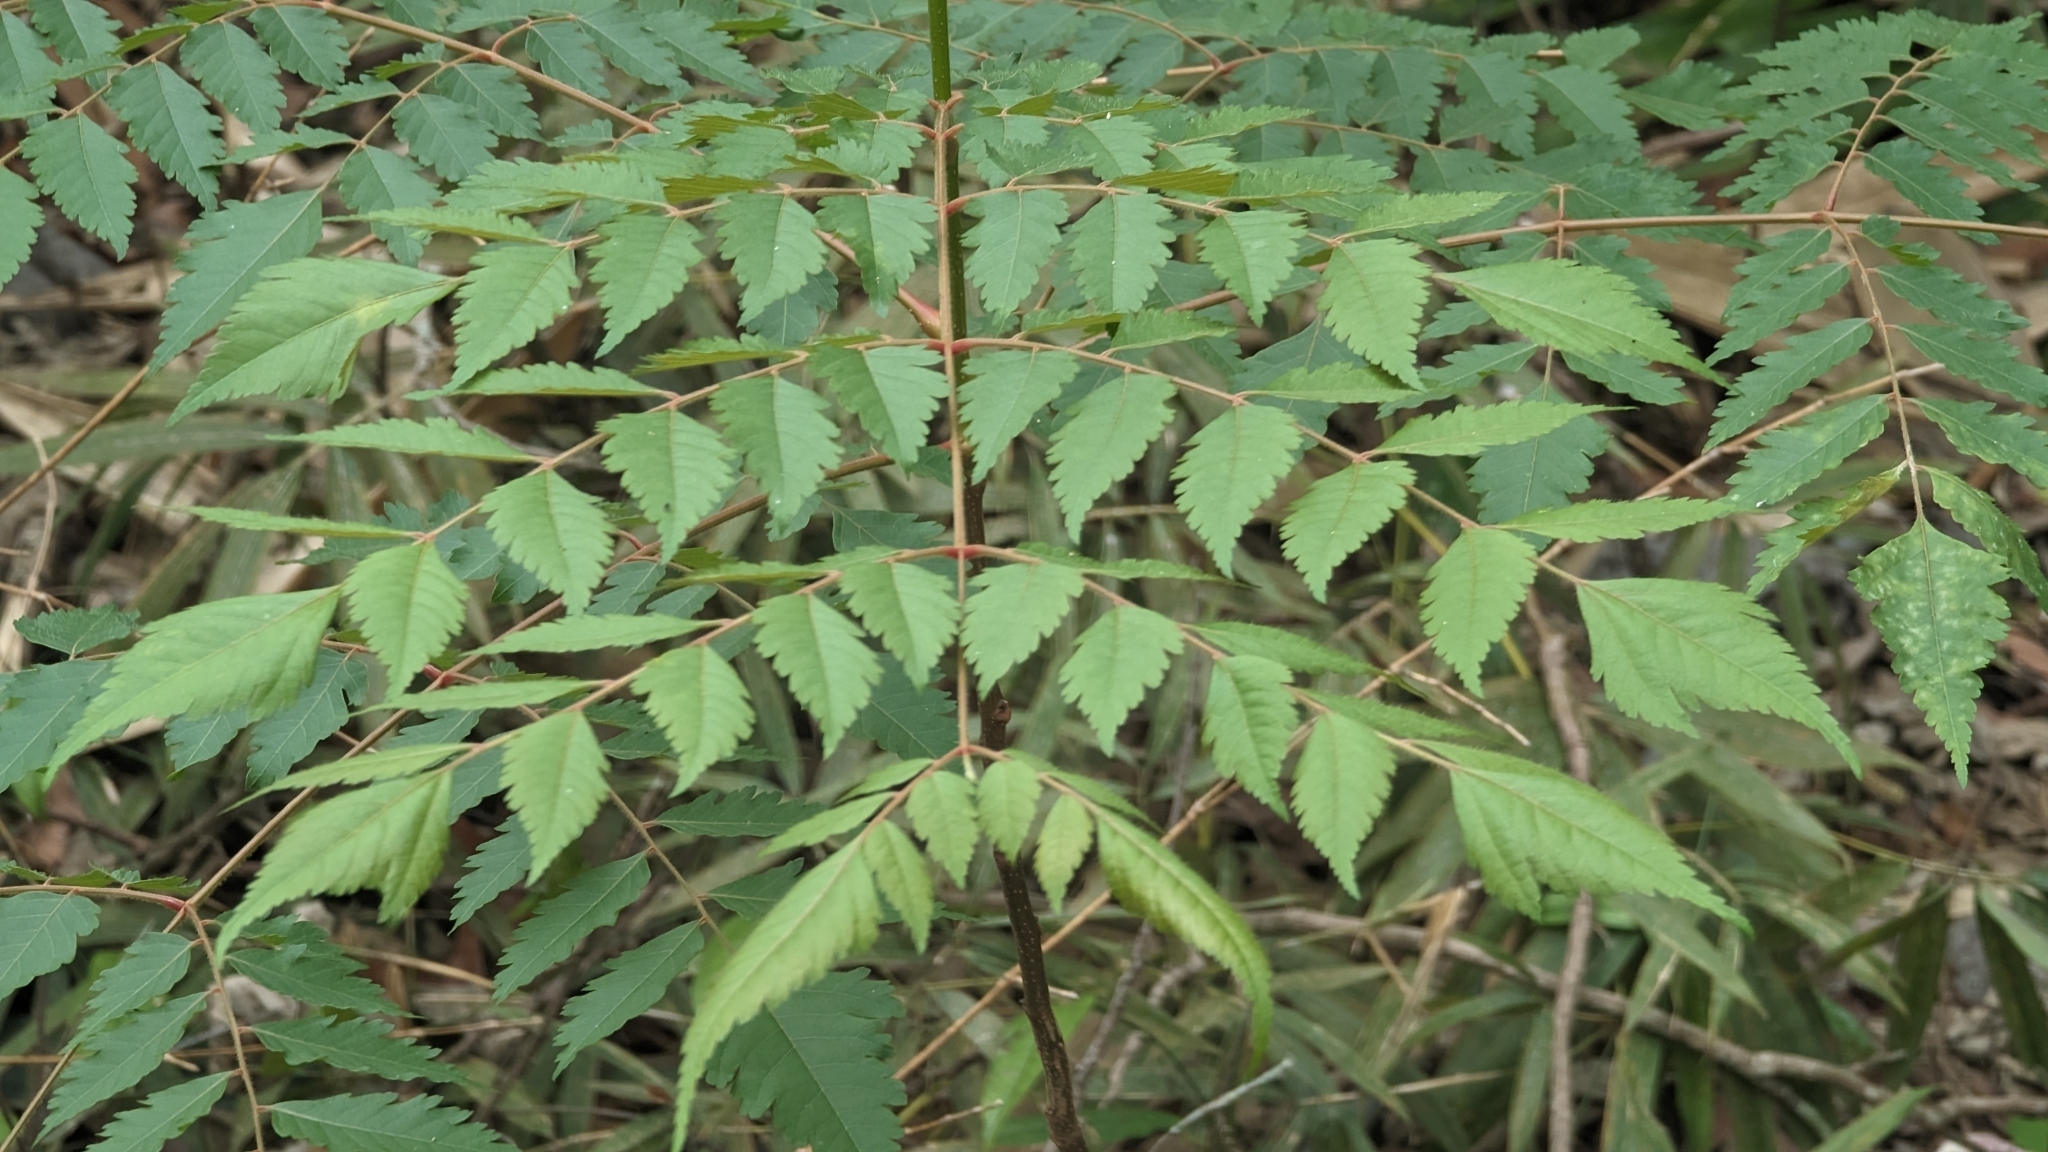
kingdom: Plantae
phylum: Tracheophyta
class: Magnoliopsida
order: Sapindales
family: Sapindaceae
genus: Koelreuteria
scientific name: Koelreuteria elegans
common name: Chinese flame tree
